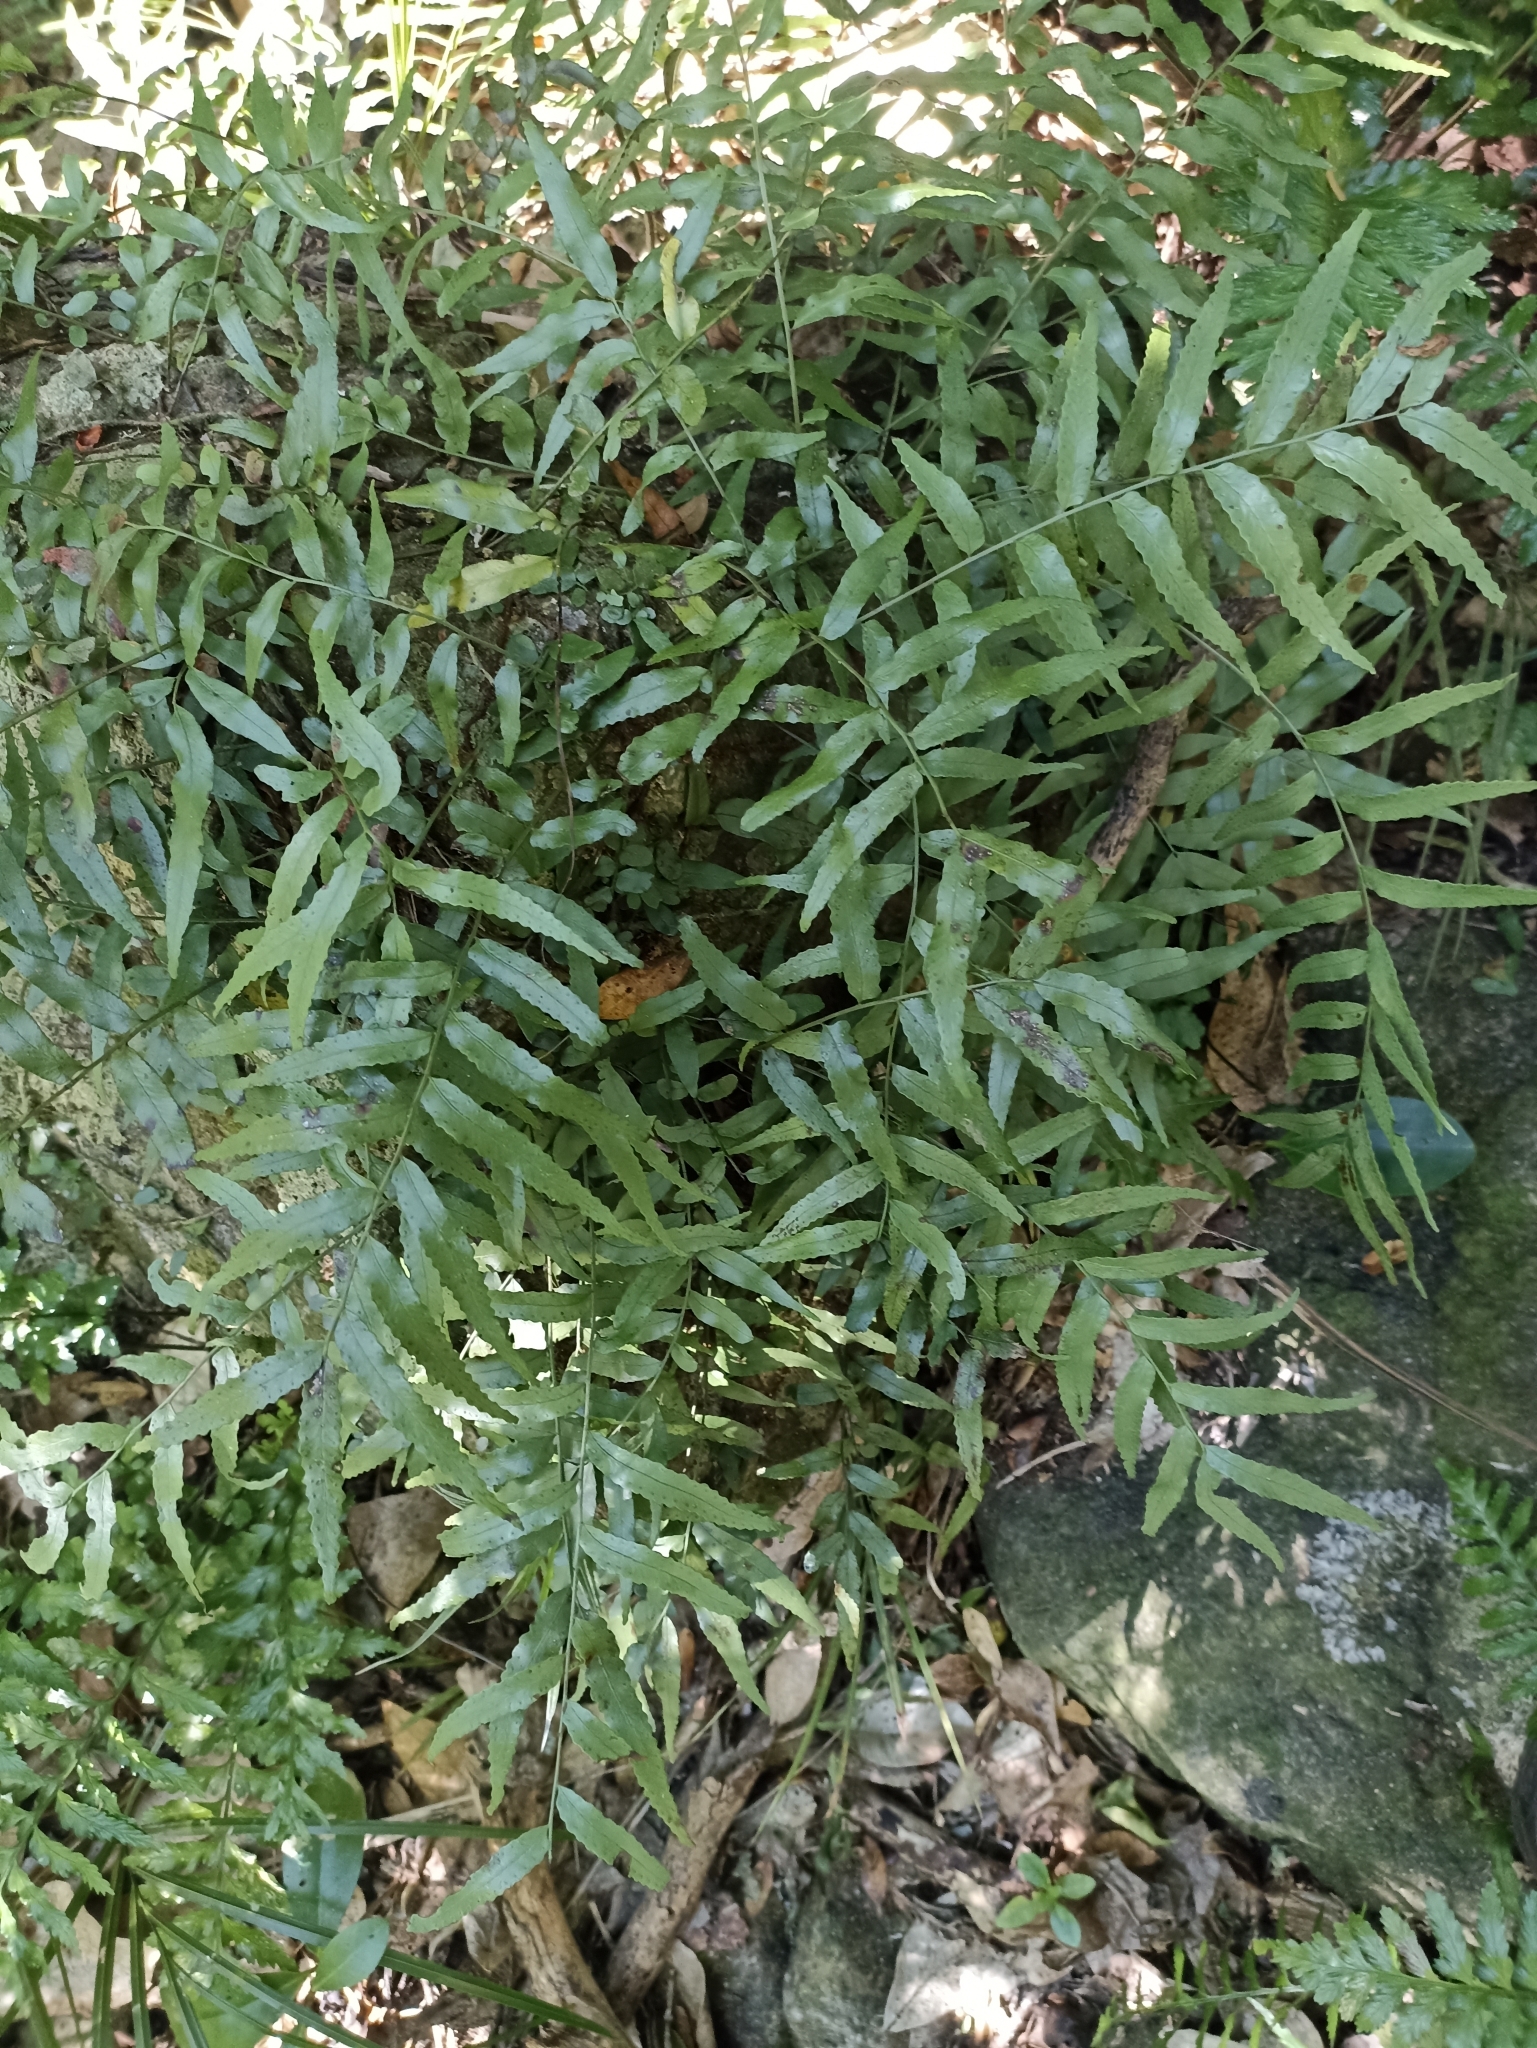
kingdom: Plantae
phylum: Tracheophyta
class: Polypodiopsida
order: Polypodiales
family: Tectariaceae
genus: Arthropteris
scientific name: Arthropteris tenella
